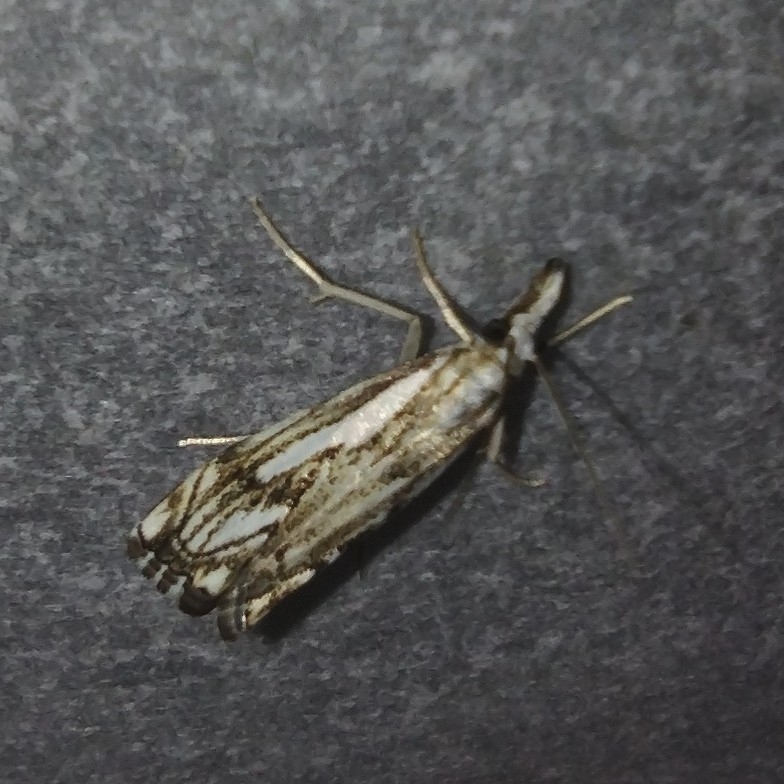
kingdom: Animalia
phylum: Arthropoda
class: Insecta
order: Lepidoptera
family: Crambidae
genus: Catoptria
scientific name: Catoptria falsella
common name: Chequered grass-veneer
